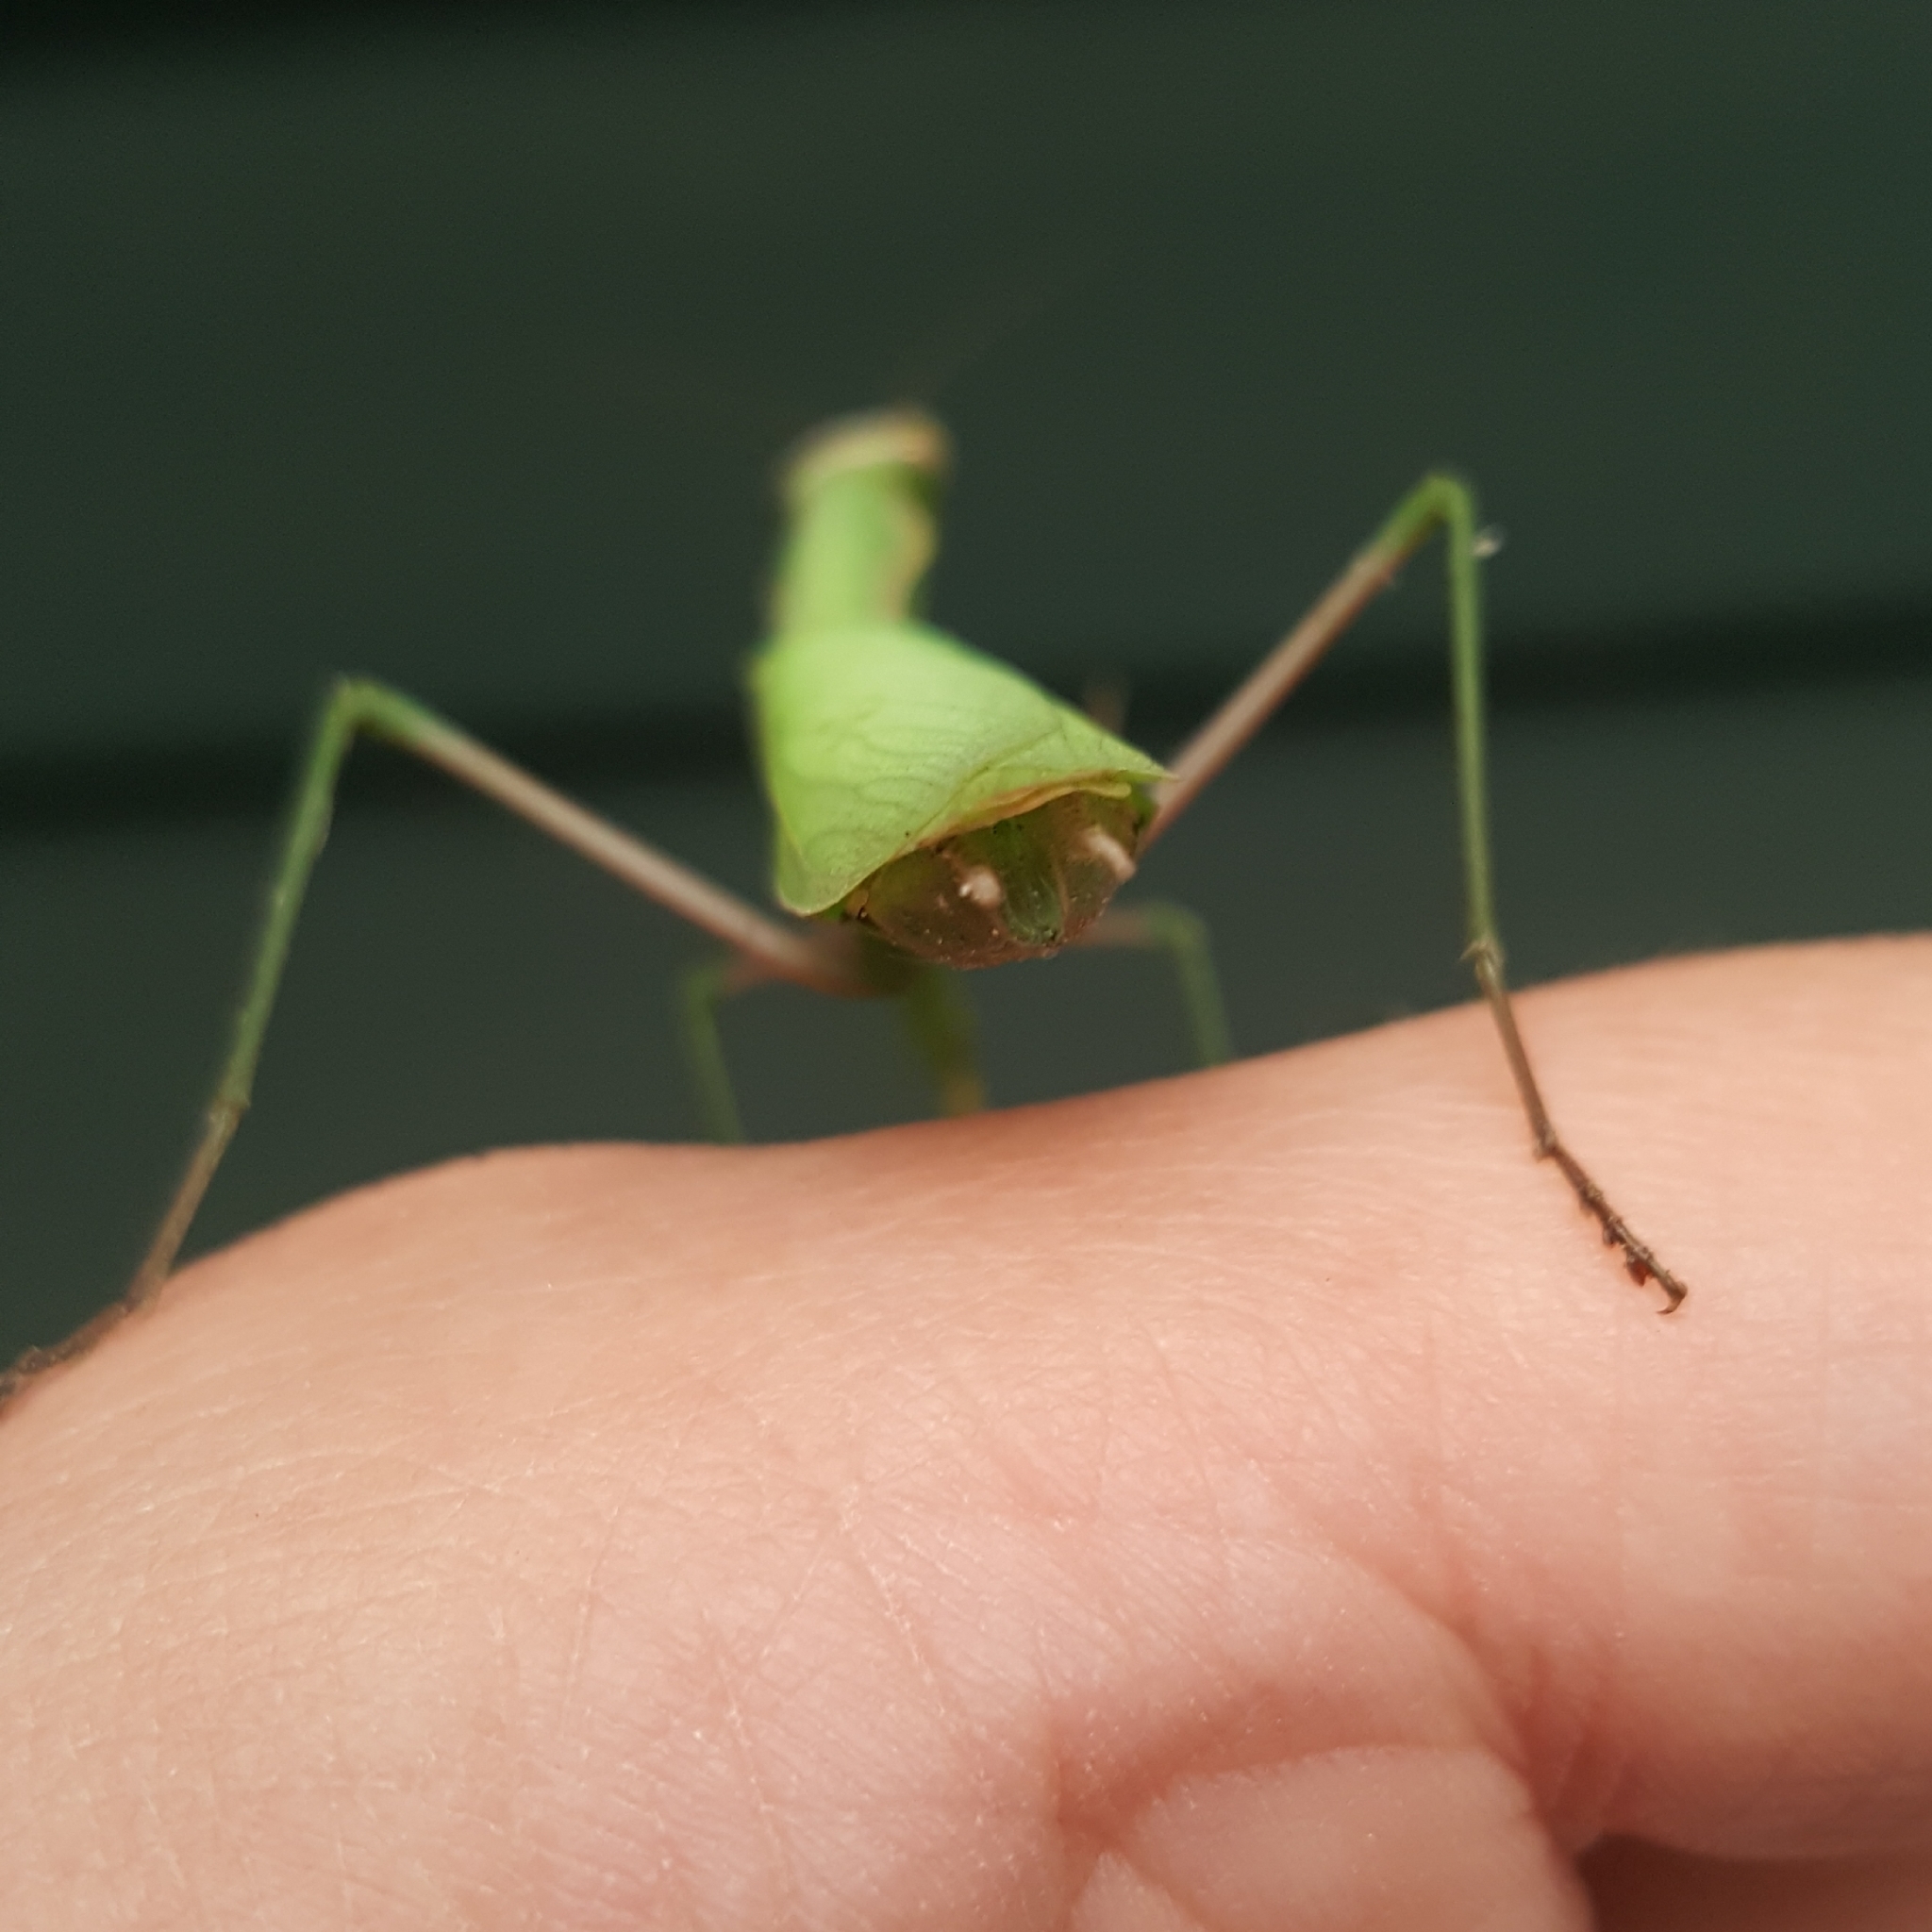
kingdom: Animalia
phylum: Arthropoda
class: Insecta
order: Mantodea
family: Mantidae
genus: Mantis
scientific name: Mantis religiosa
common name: Praying mantis
